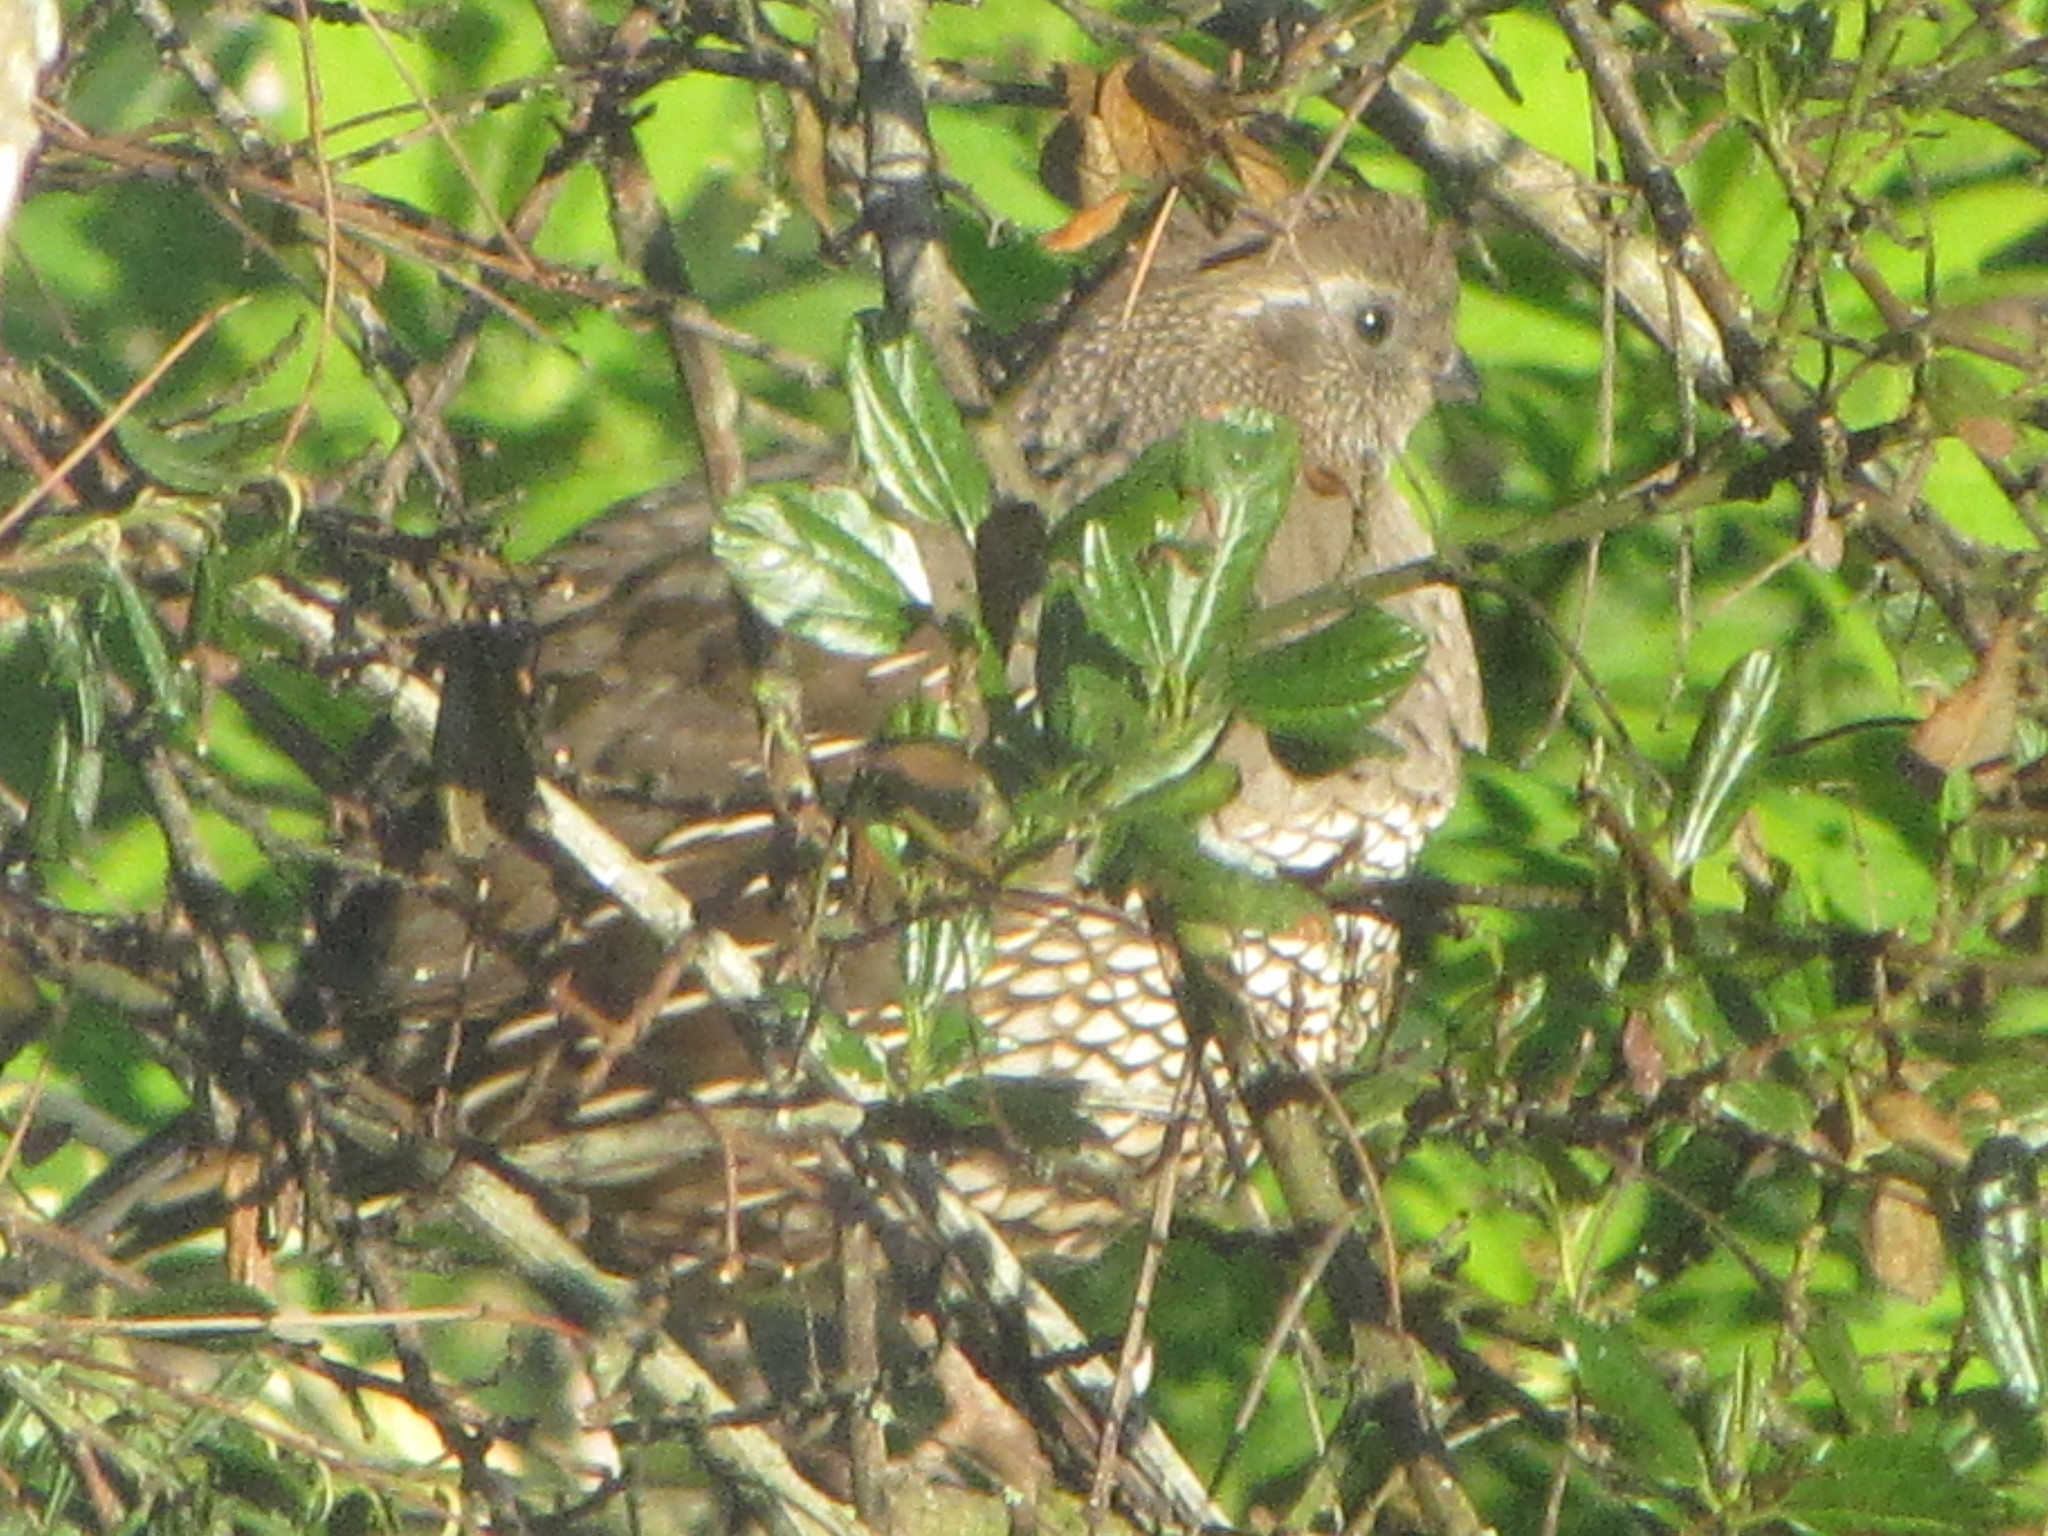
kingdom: Animalia
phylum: Chordata
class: Aves
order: Galliformes
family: Odontophoridae
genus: Callipepla
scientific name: Callipepla californica
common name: California quail
